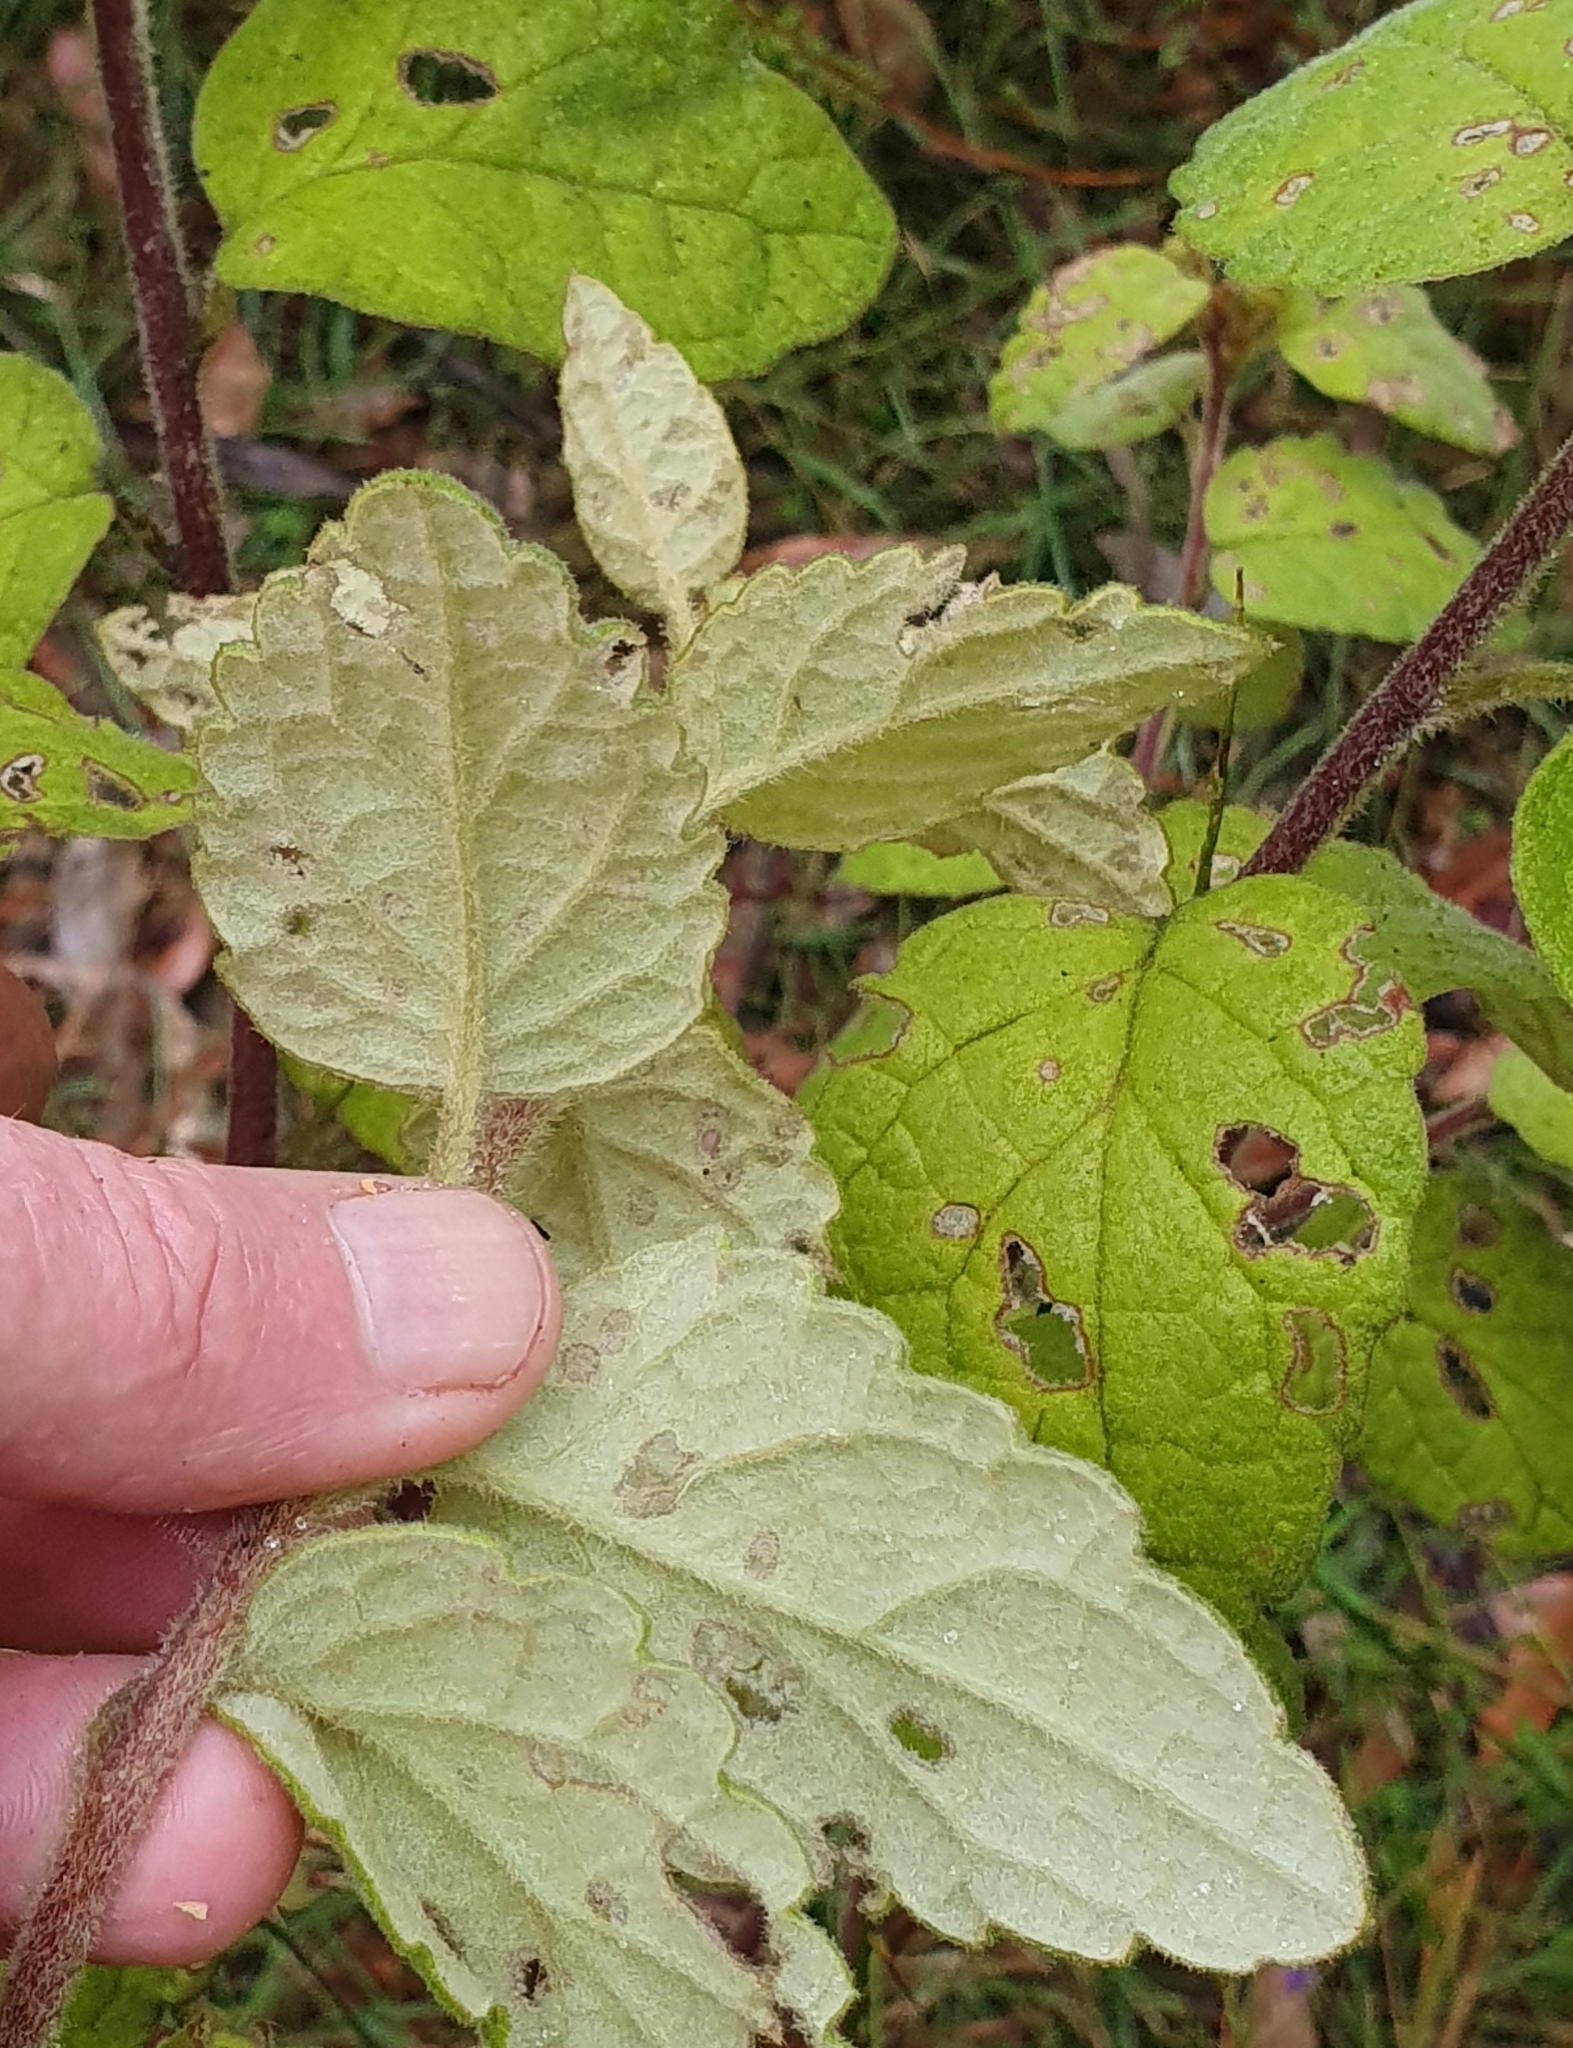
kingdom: Plantae
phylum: Tracheophyta
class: Magnoliopsida
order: Asterales
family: Asteraceae
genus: Olearia
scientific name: Olearia tomentosa
